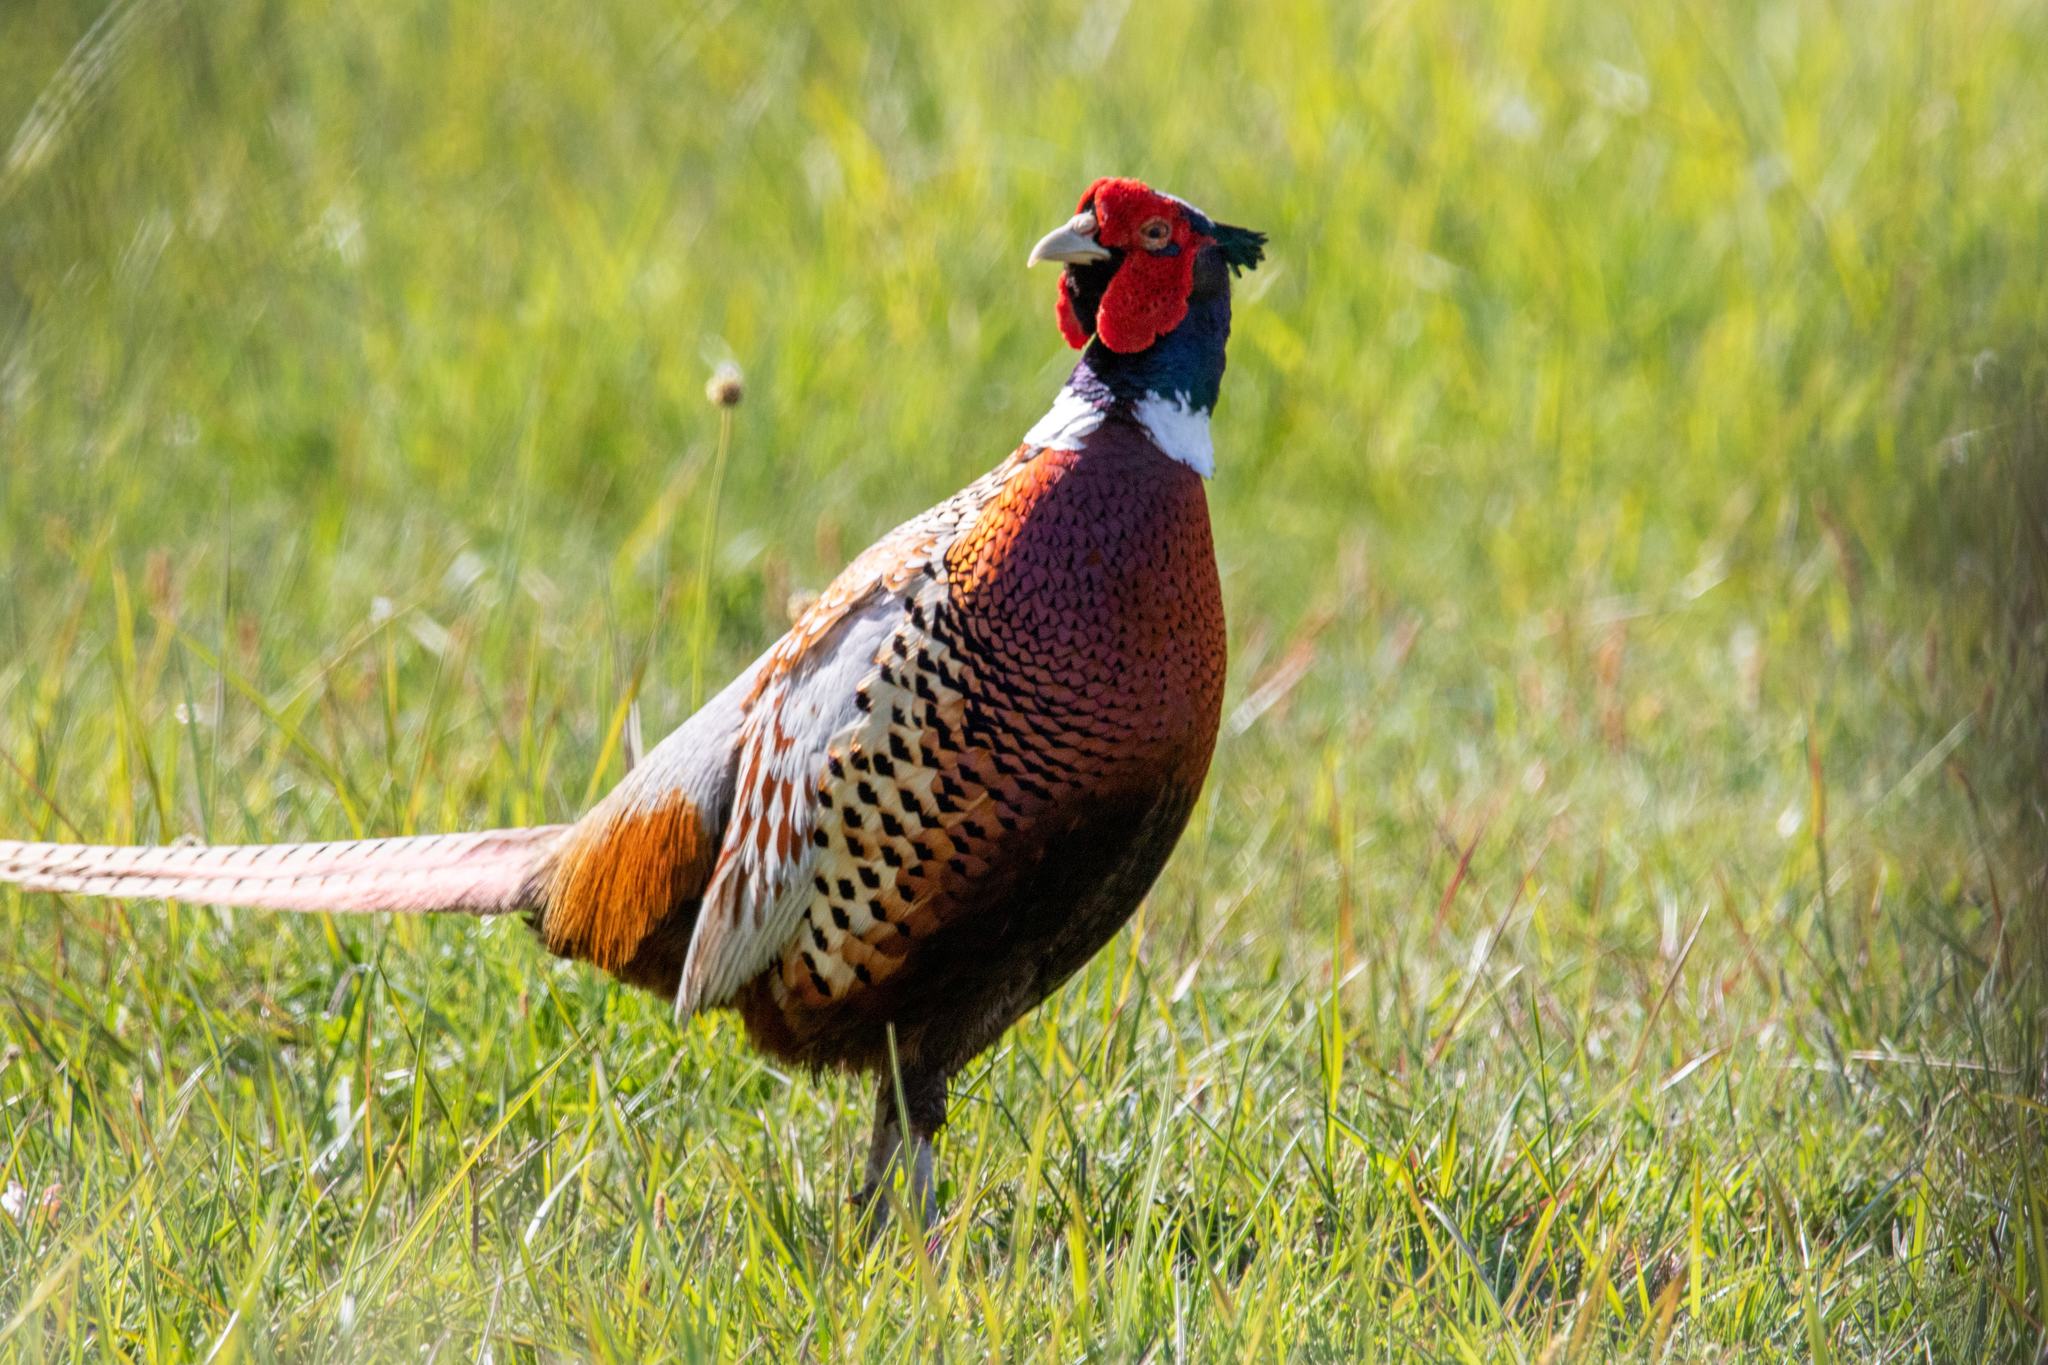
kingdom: Animalia
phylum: Chordata
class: Aves
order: Galliformes
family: Phasianidae
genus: Phasianus
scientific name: Phasianus colchicus
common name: Common pheasant
